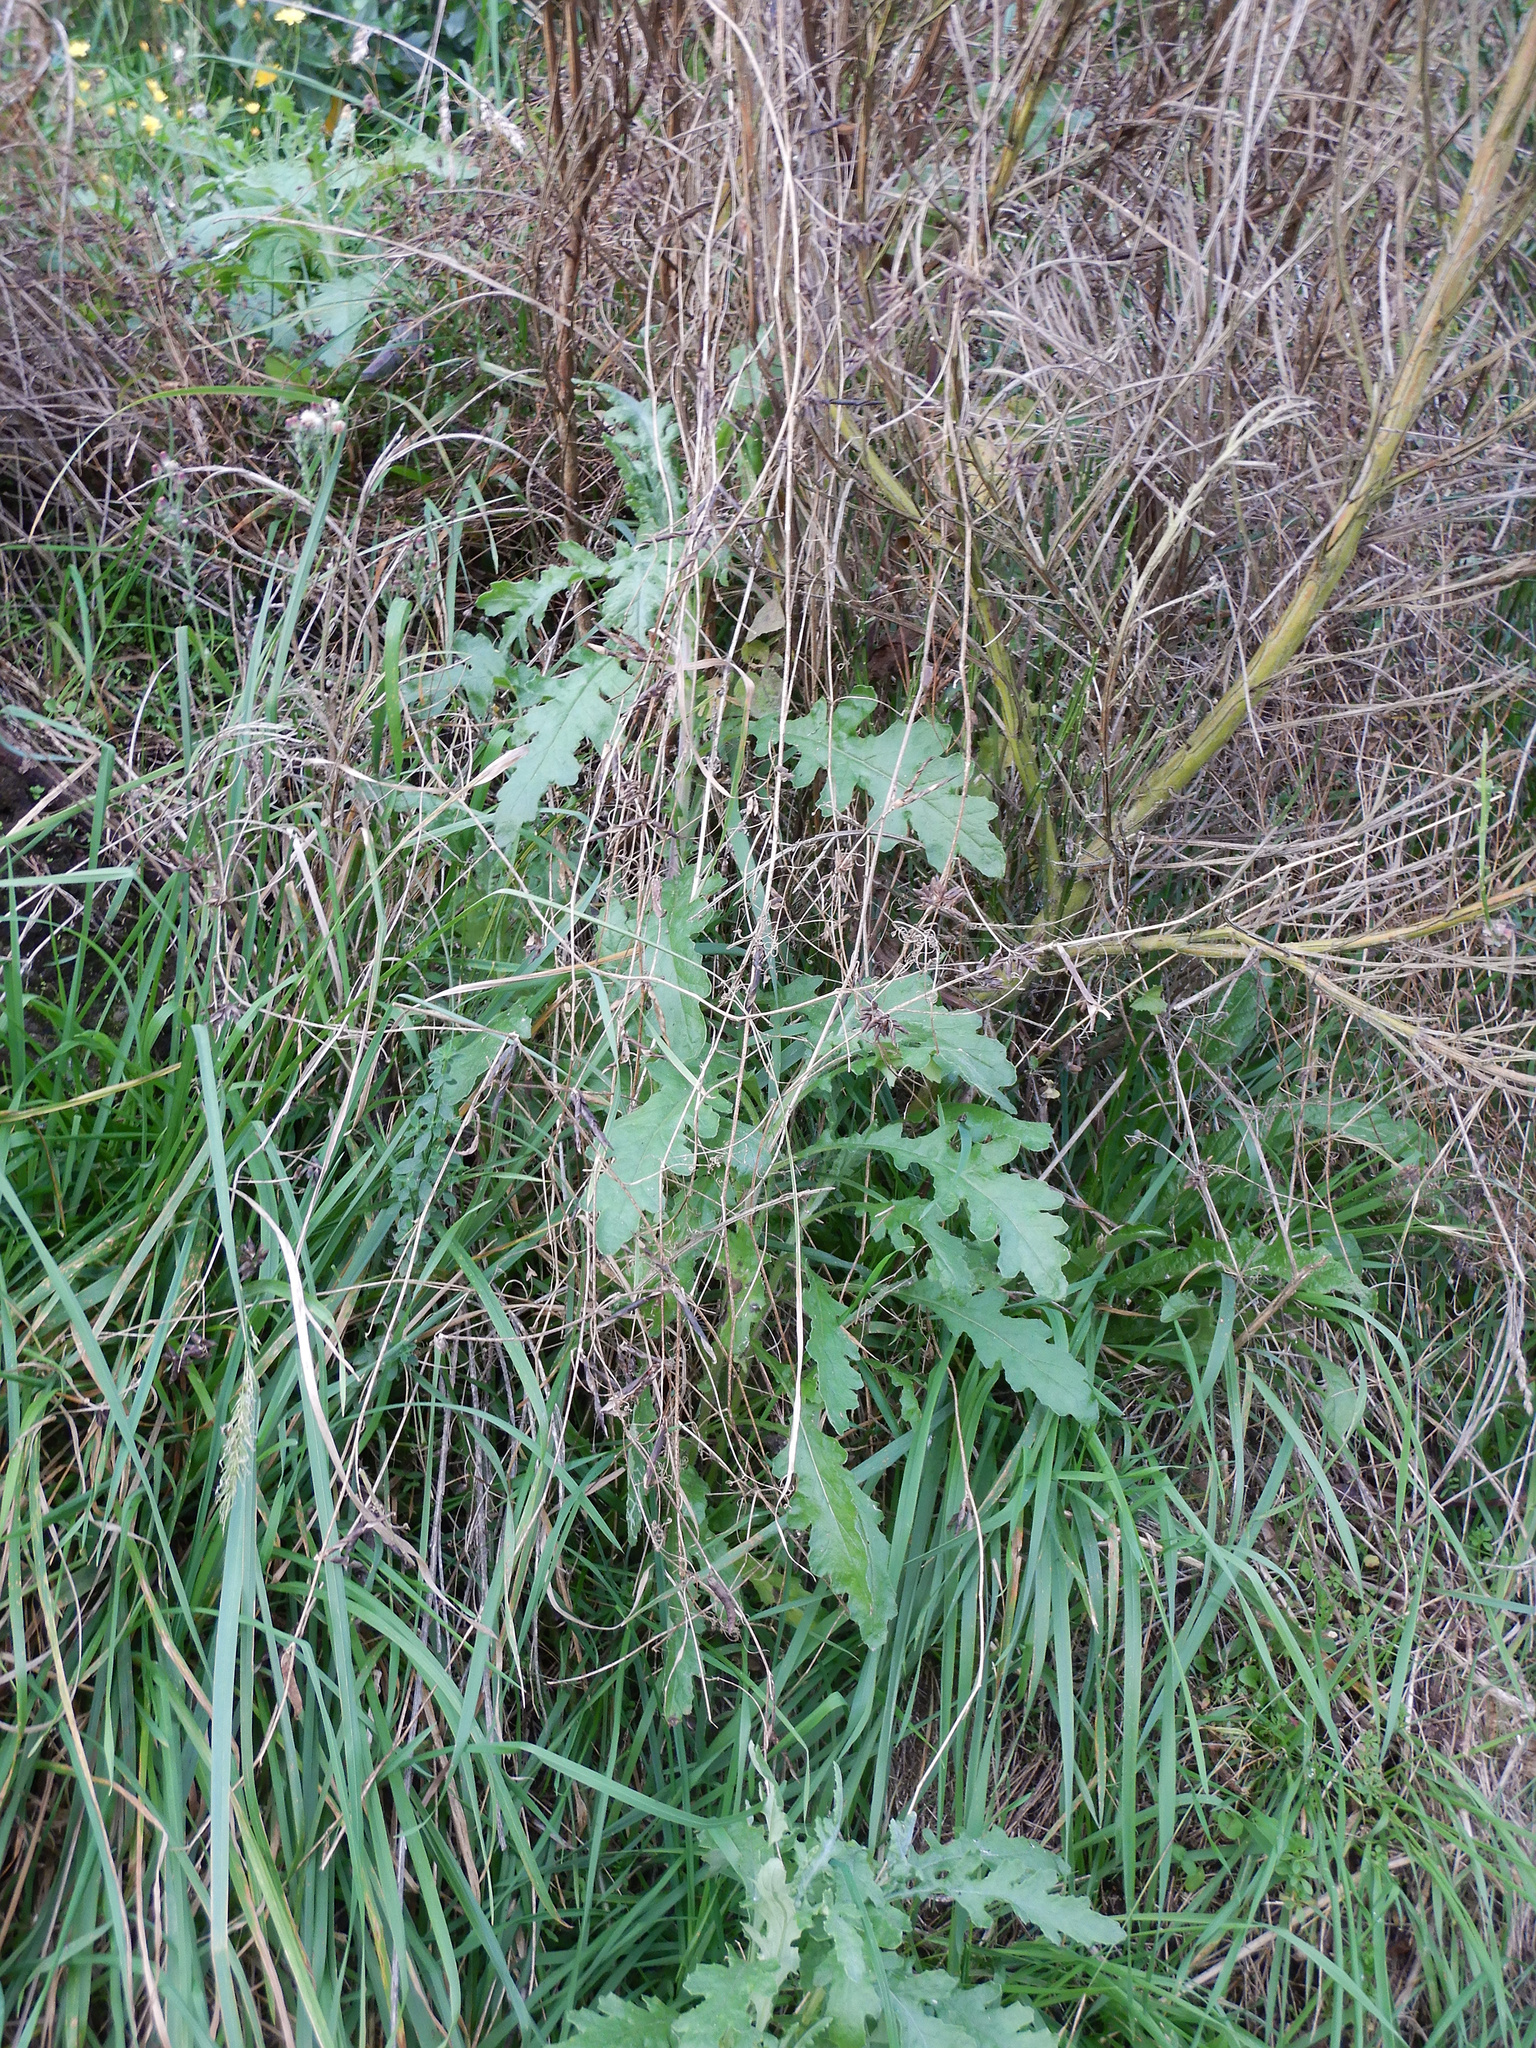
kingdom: Plantae
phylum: Tracheophyta
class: Magnoliopsida
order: Asterales
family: Asteraceae
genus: Senecio
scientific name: Senecio glomeratus
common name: Cutleaf burnweed
